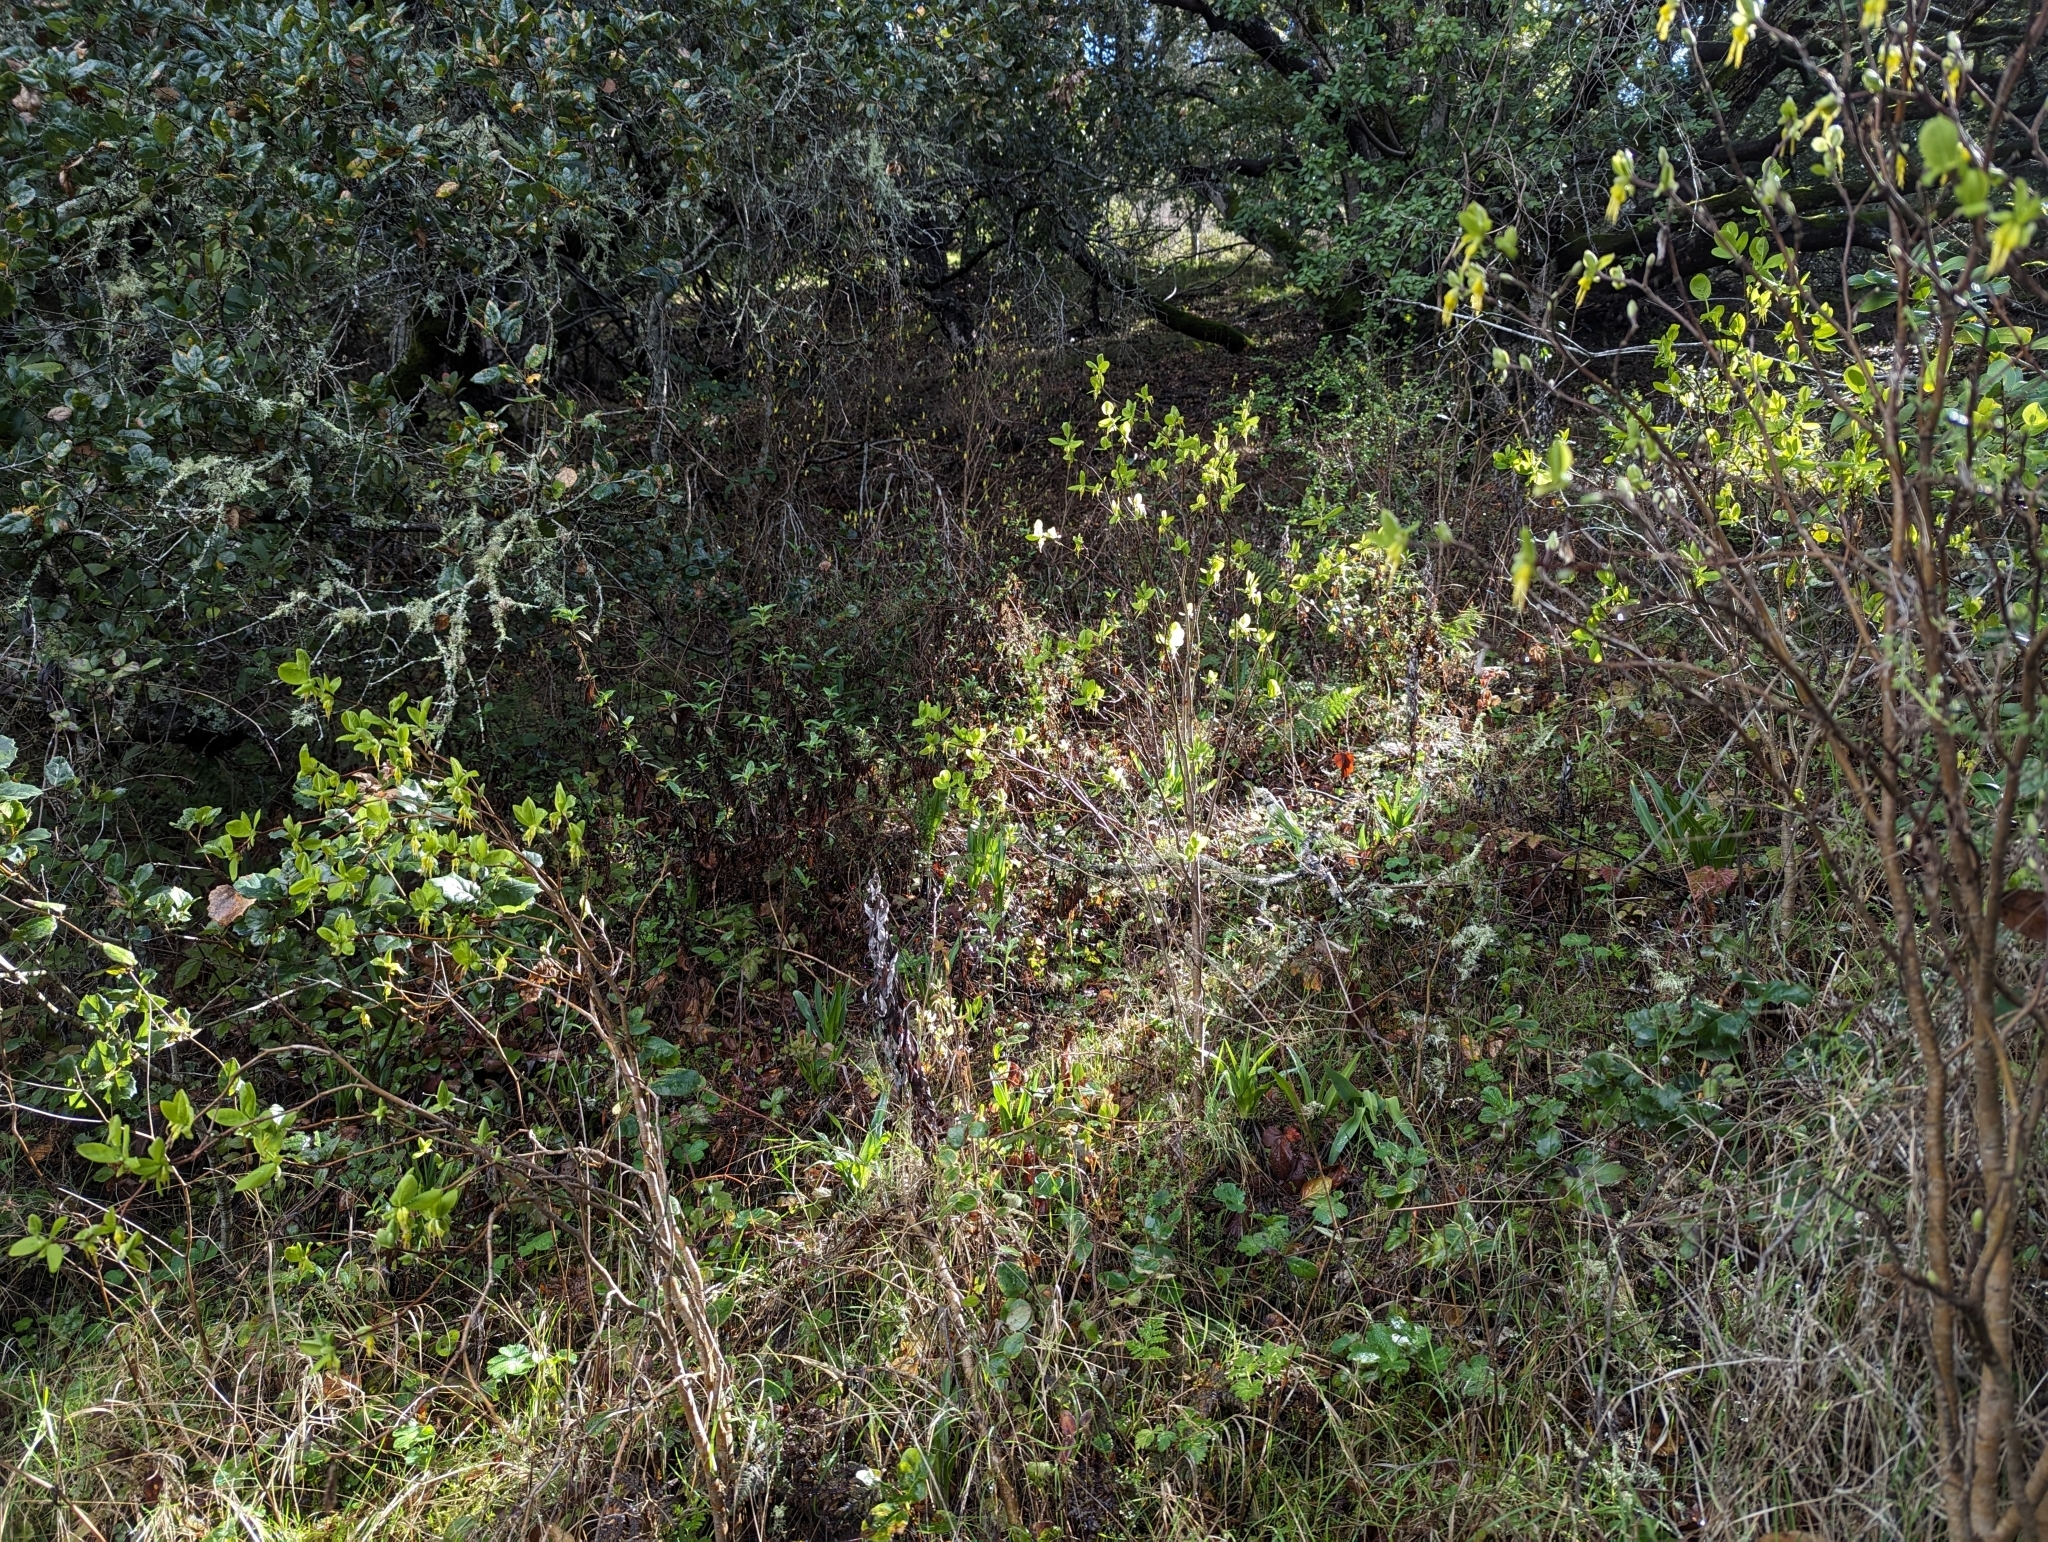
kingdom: Plantae
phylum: Tracheophyta
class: Magnoliopsida
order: Malvales
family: Thymelaeaceae
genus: Dirca
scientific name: Dirca occidentalis
